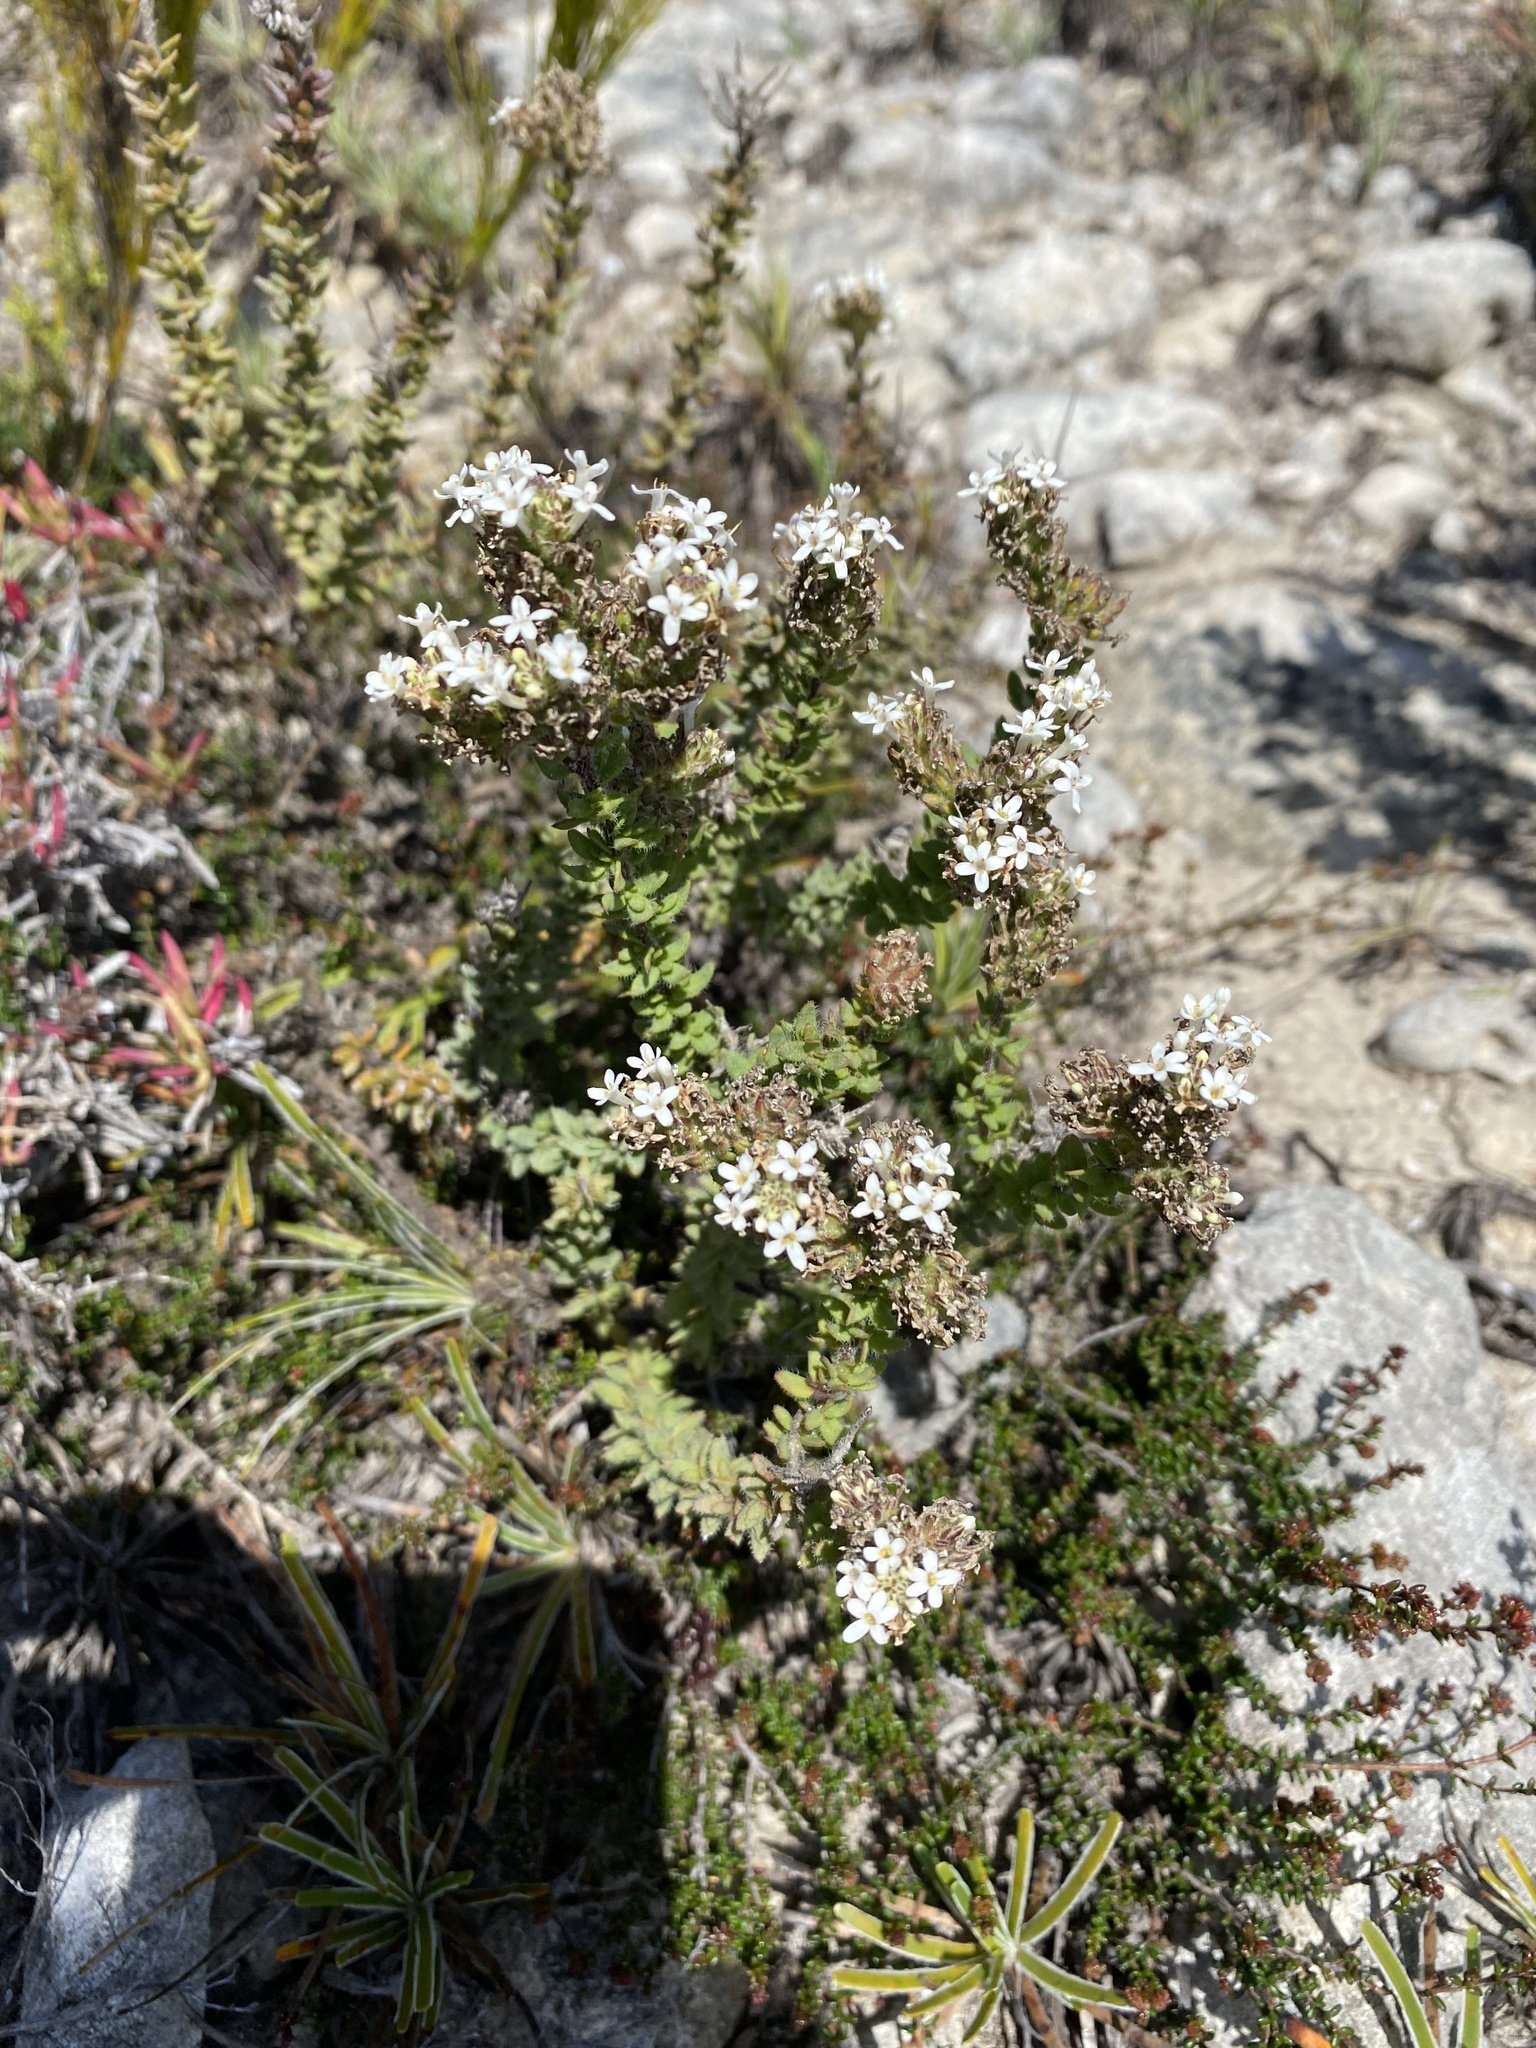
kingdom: Plantae
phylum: Tracheophyta
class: Magnoliopsida
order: Lamiales
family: Scrophulariaceae
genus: Selago
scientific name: Selago setulosa
